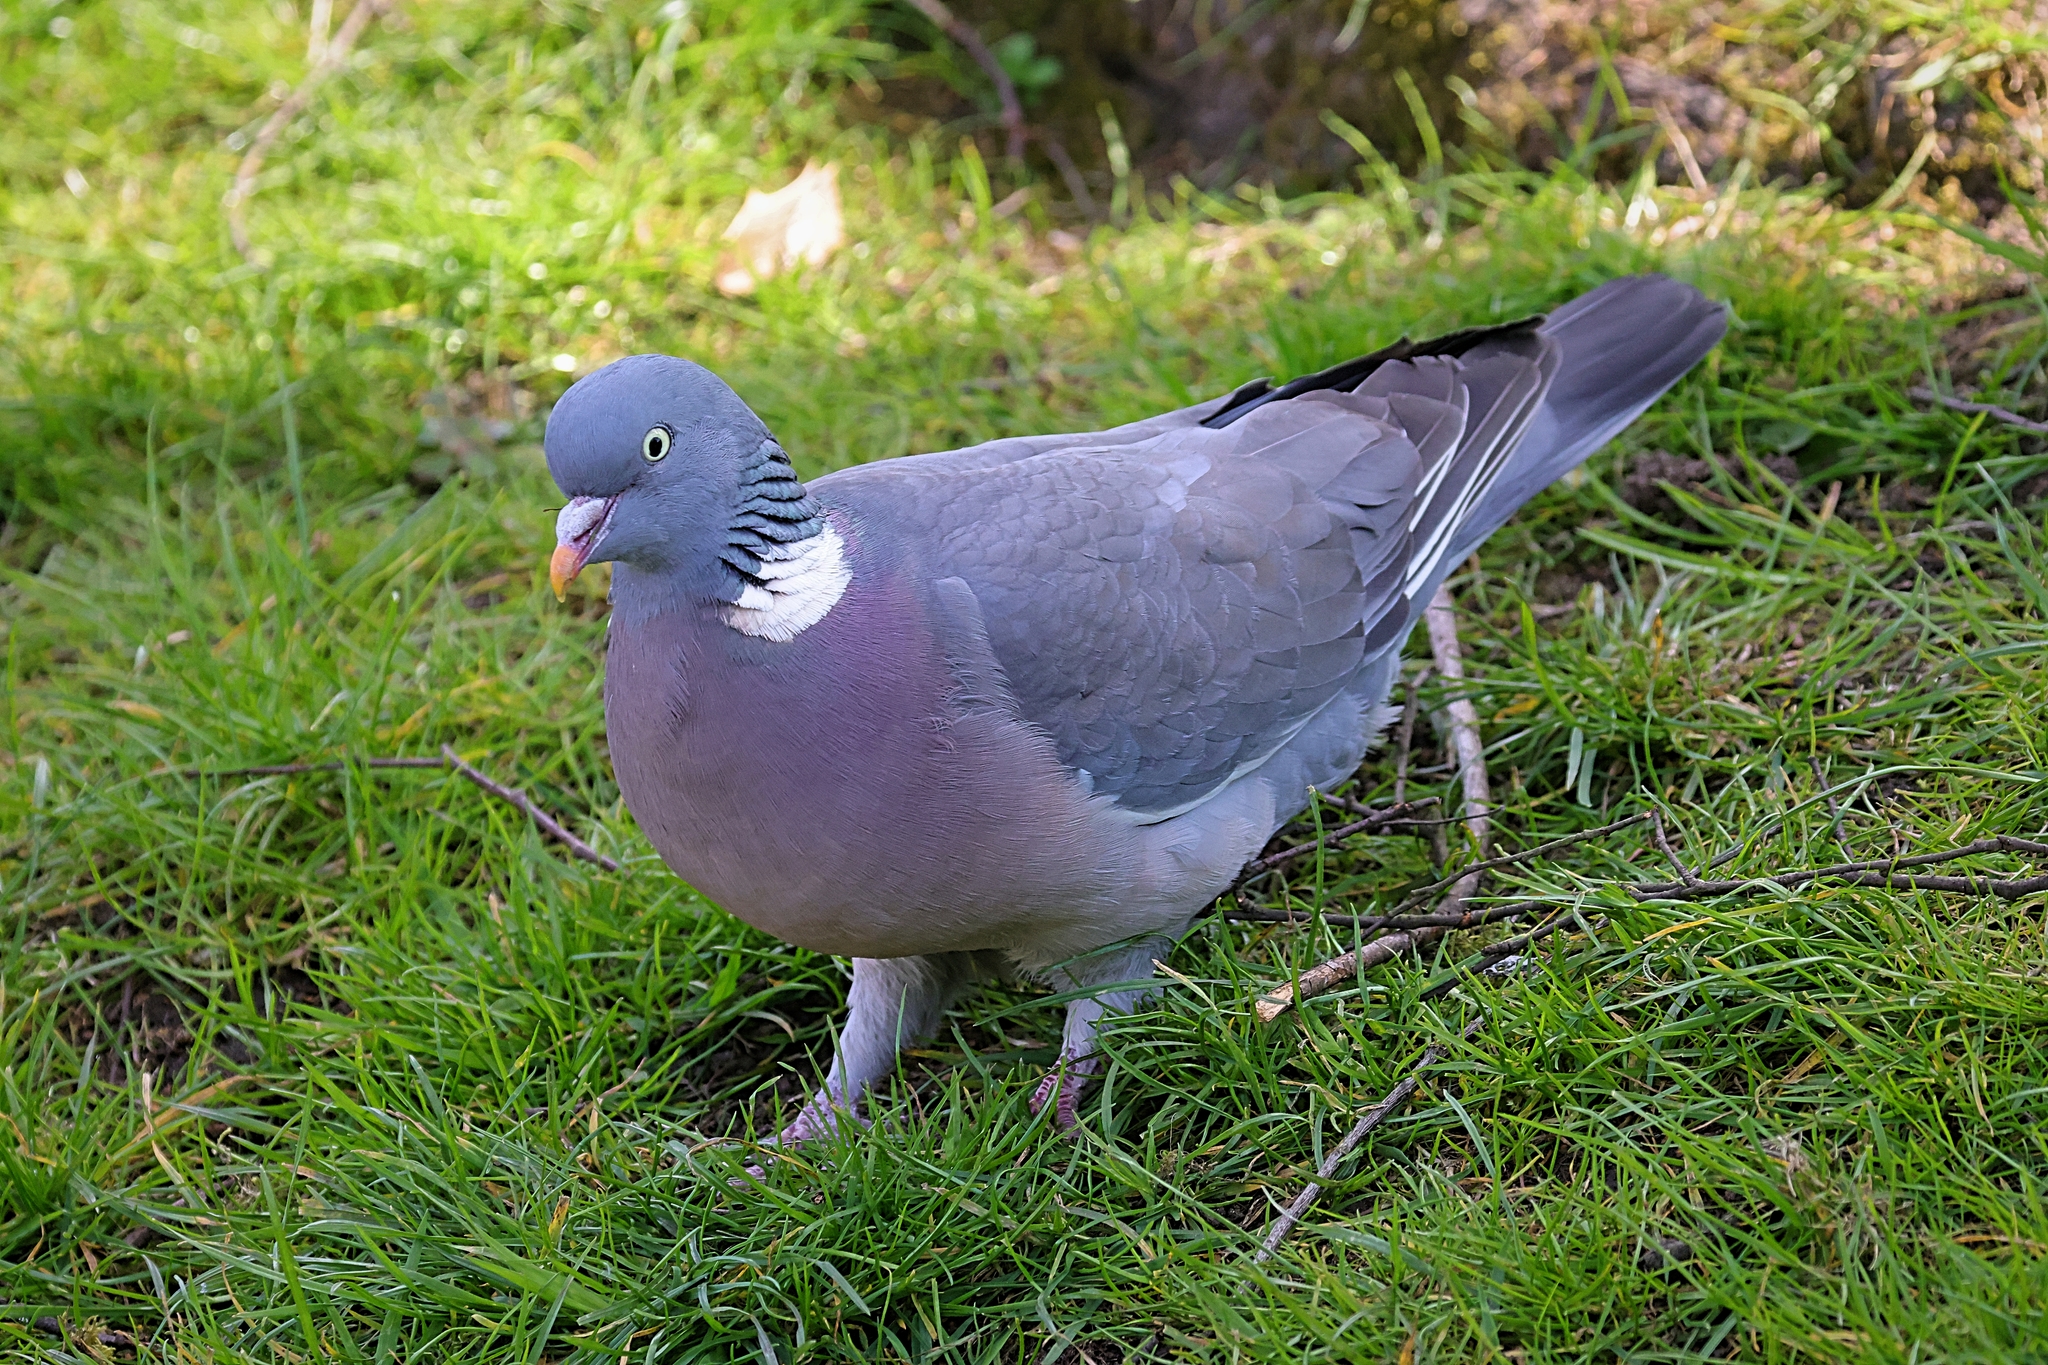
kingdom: Animalia
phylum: Chordata
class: Aves
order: Columbiformes
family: Columbidae
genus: Columba
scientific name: Columba palumbus
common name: Common wood pigeon
